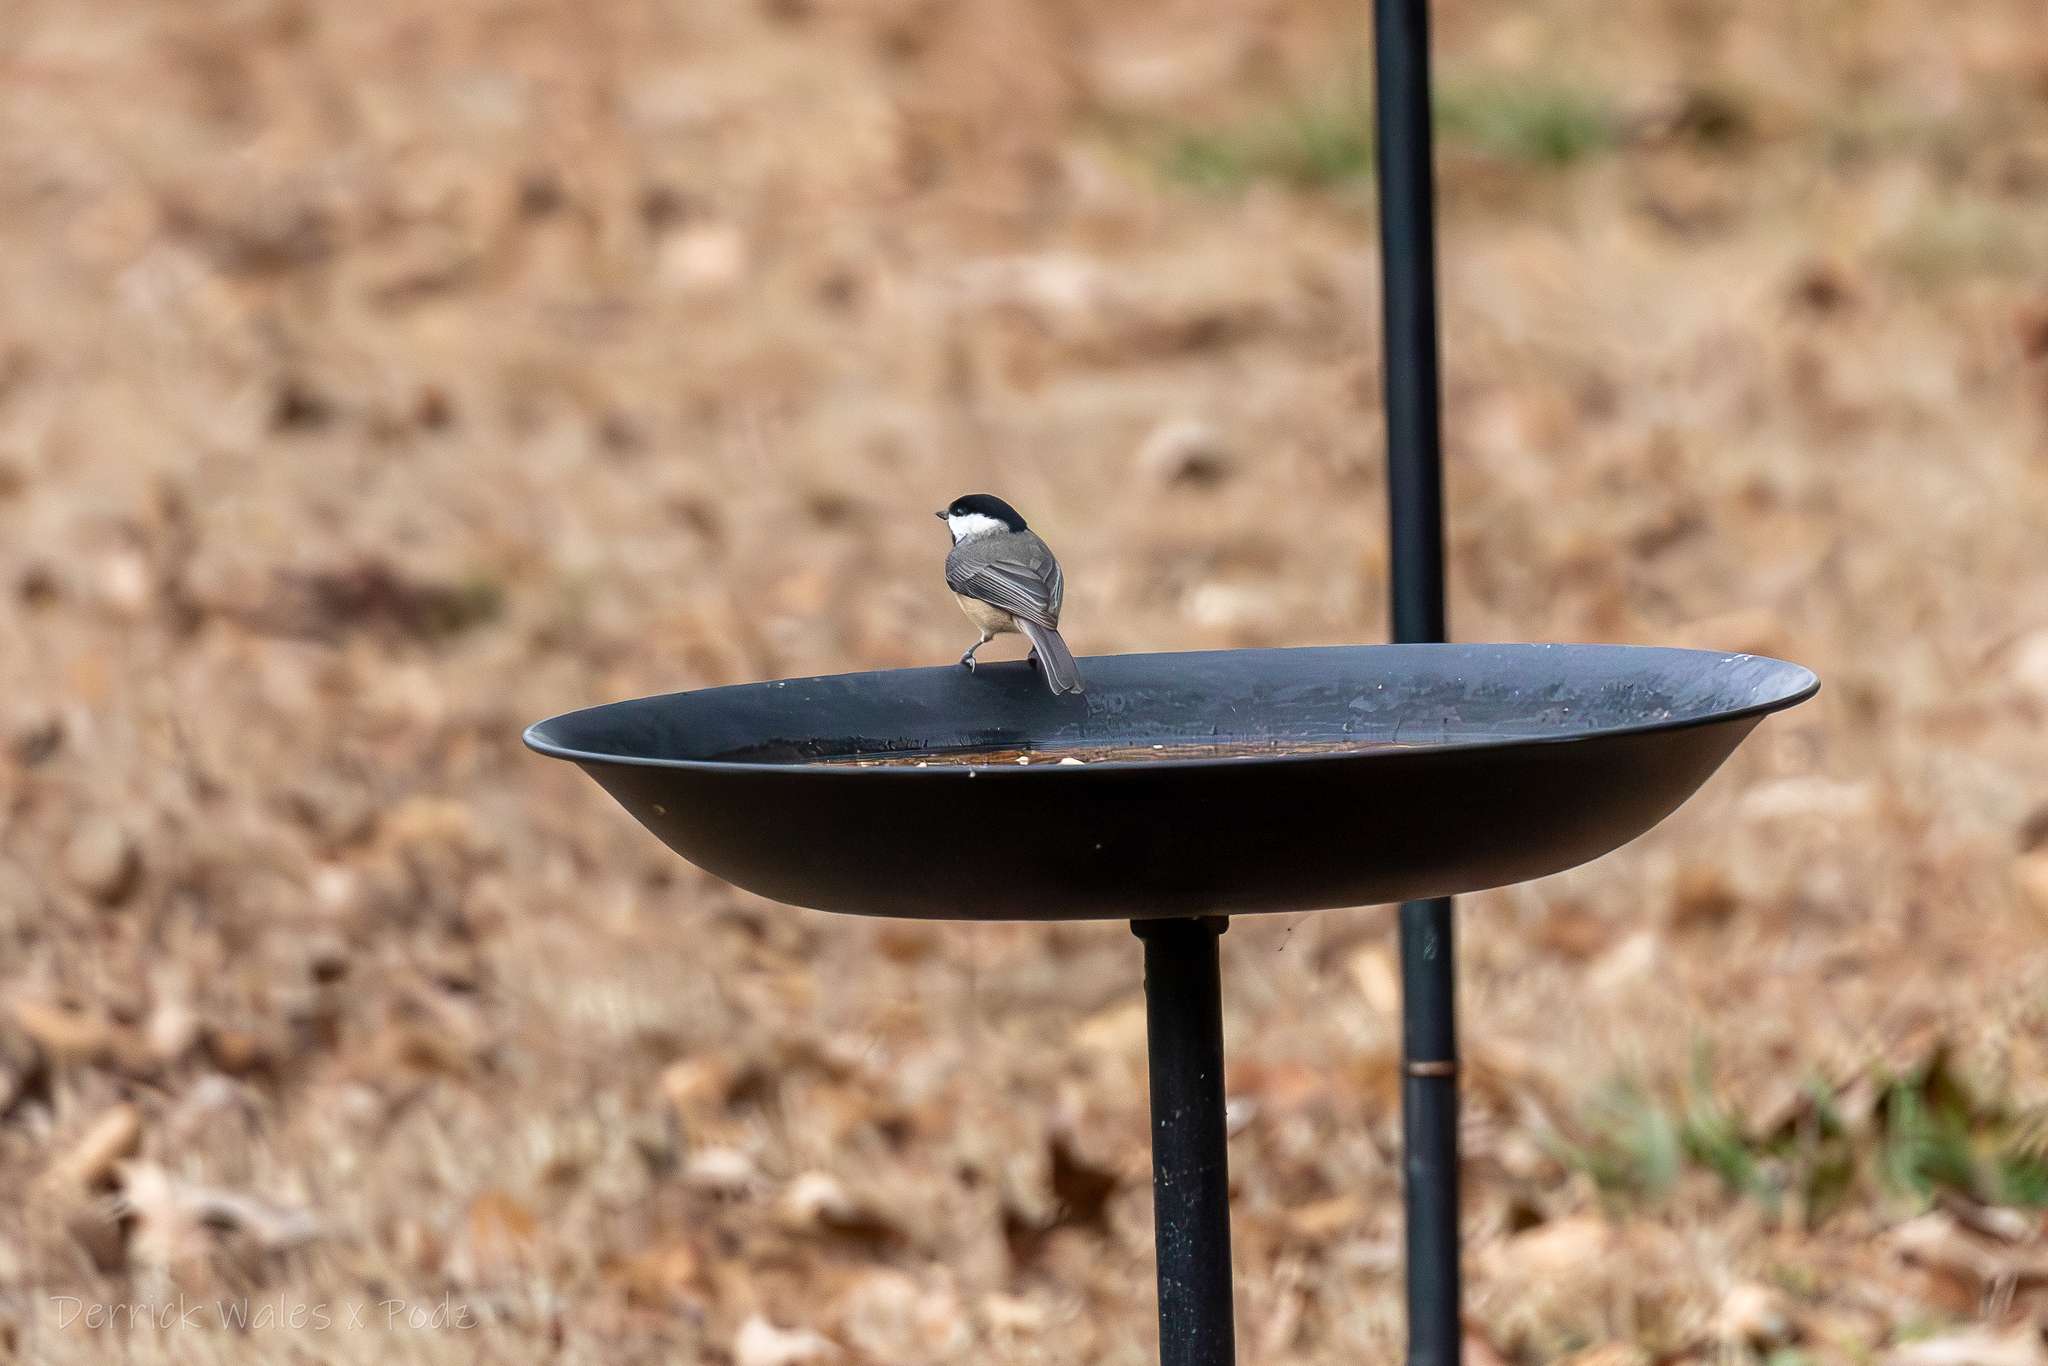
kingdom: Animalia
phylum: Chordata
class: Aves
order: Passeriformes
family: Paridae
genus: Poecile
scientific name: Poecile carolinensis
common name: Carolina chickadee
